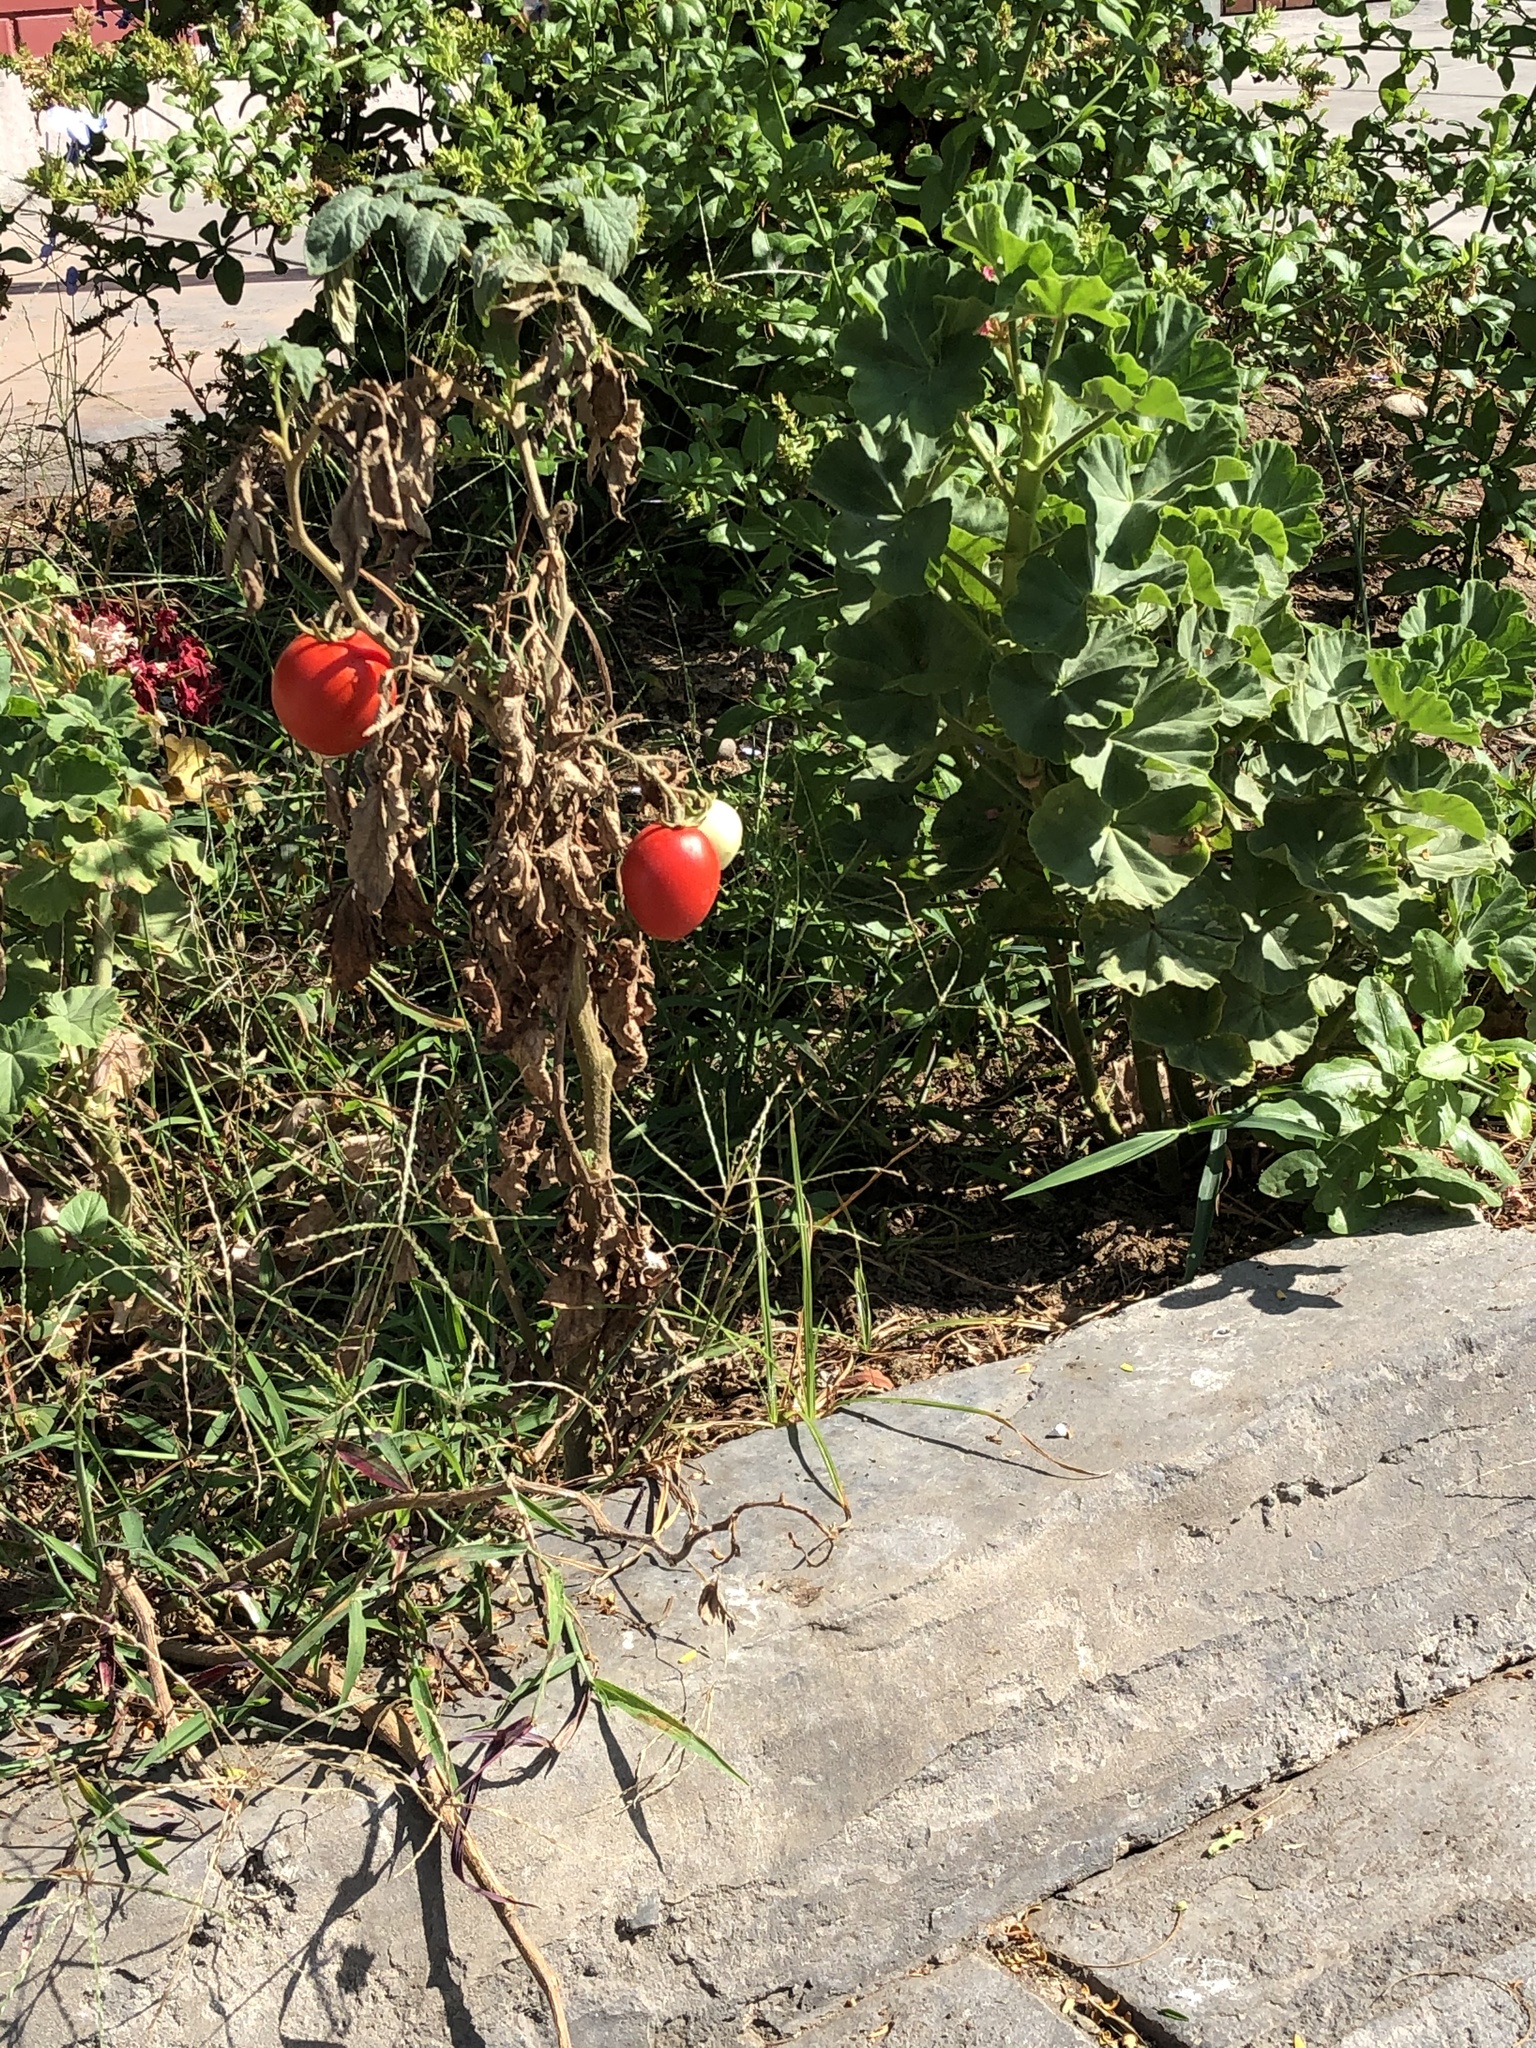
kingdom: Plantae
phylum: Tracheophyta
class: Magnoliopsida
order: Solanales
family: Solanaceae
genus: Solanum
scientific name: Solanum lycopersicum
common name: Garden tomato
